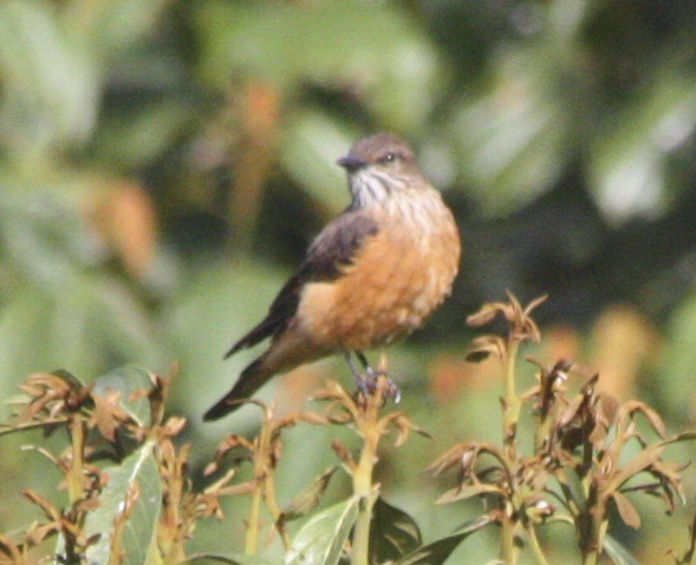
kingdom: Animalia
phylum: Chordata
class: Aves
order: Passeriformes
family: Tyrannidae
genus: Myiotheretes
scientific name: Myiotheretes striaticollis
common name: Streak-throated bush tyrant
